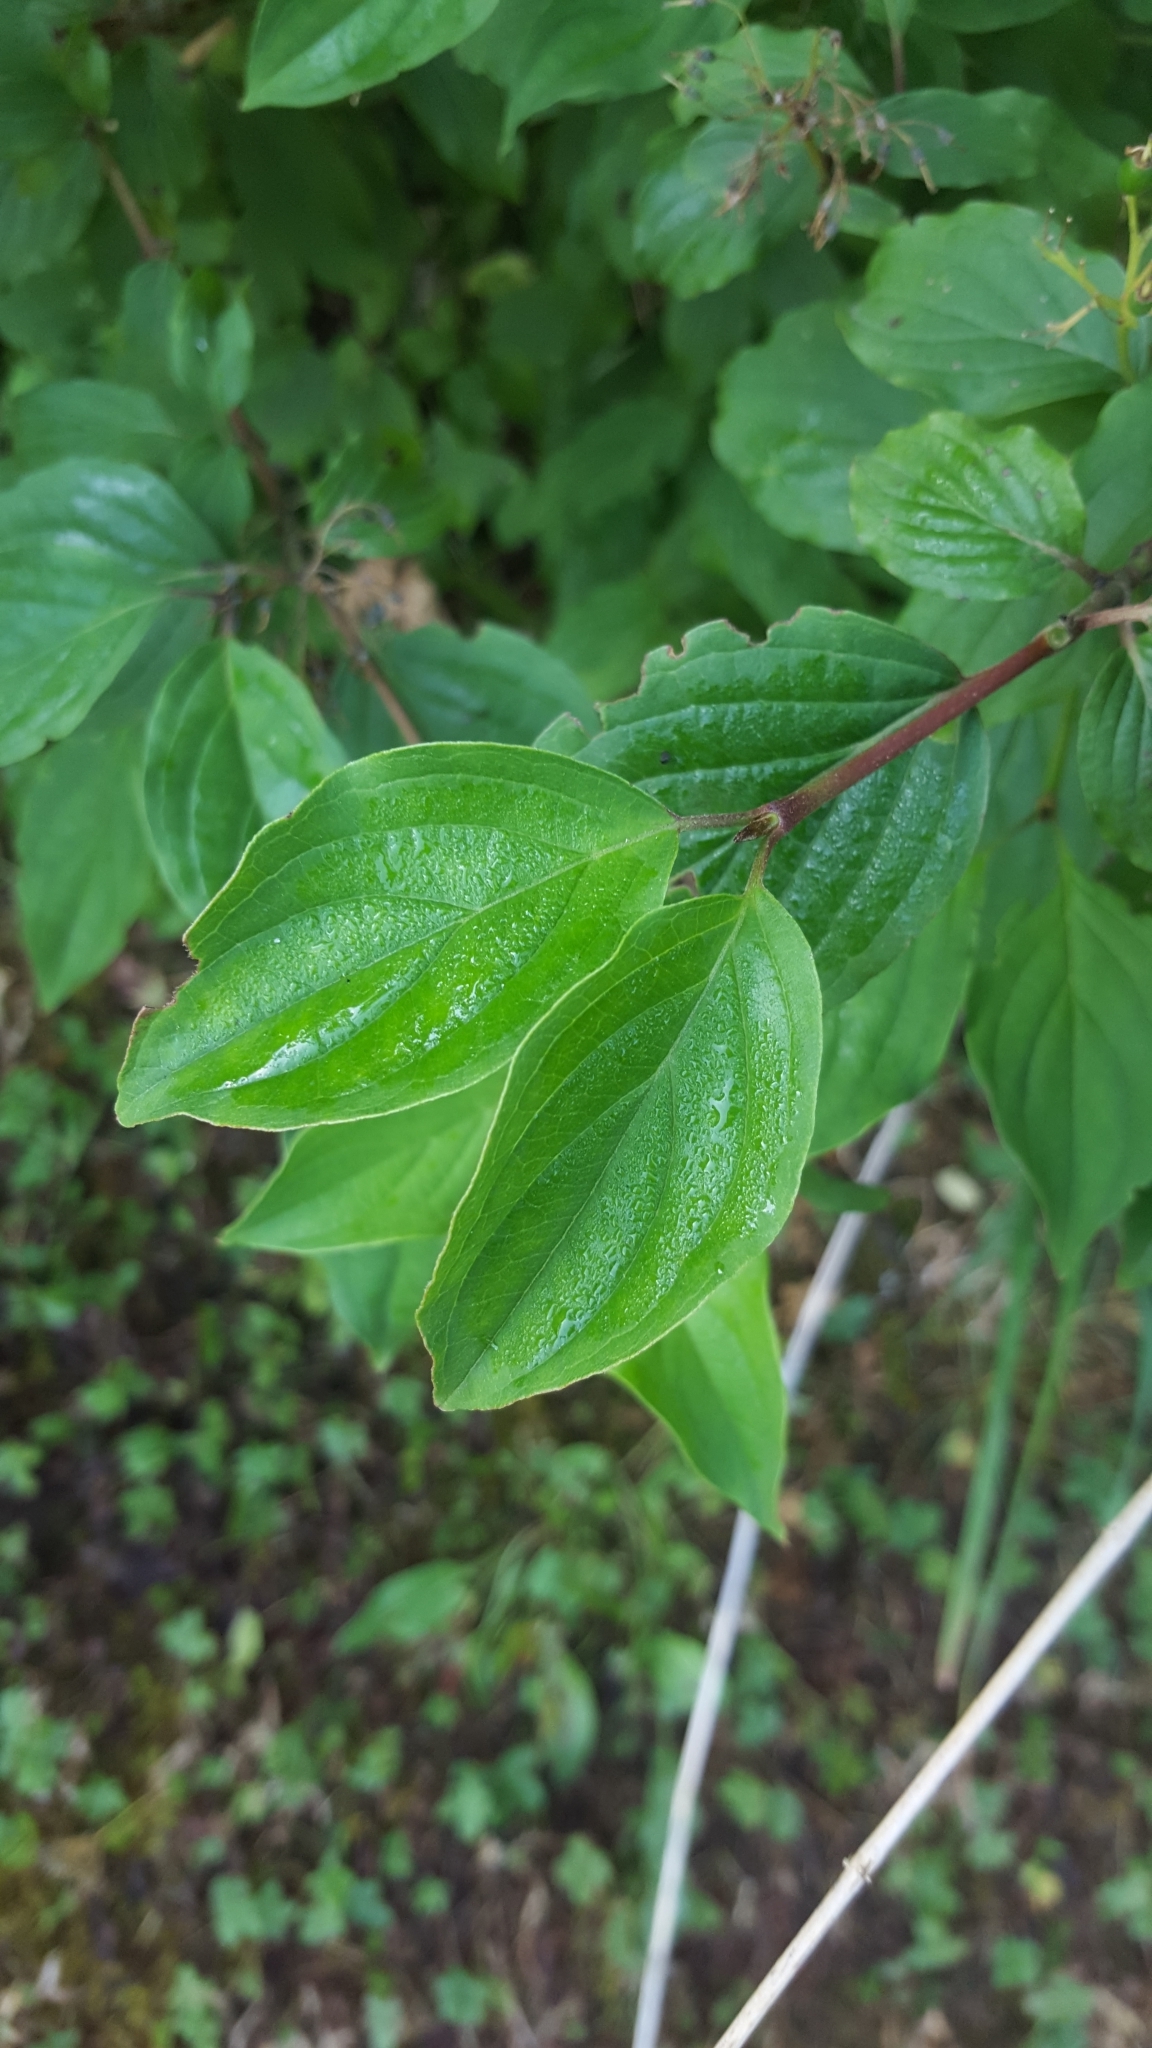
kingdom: Plantae
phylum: Tracheophyta
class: Magnoliopsida
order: Cornales
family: Cornaceae
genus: Cornus
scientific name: Cornus sanguinea
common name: Dogwood
